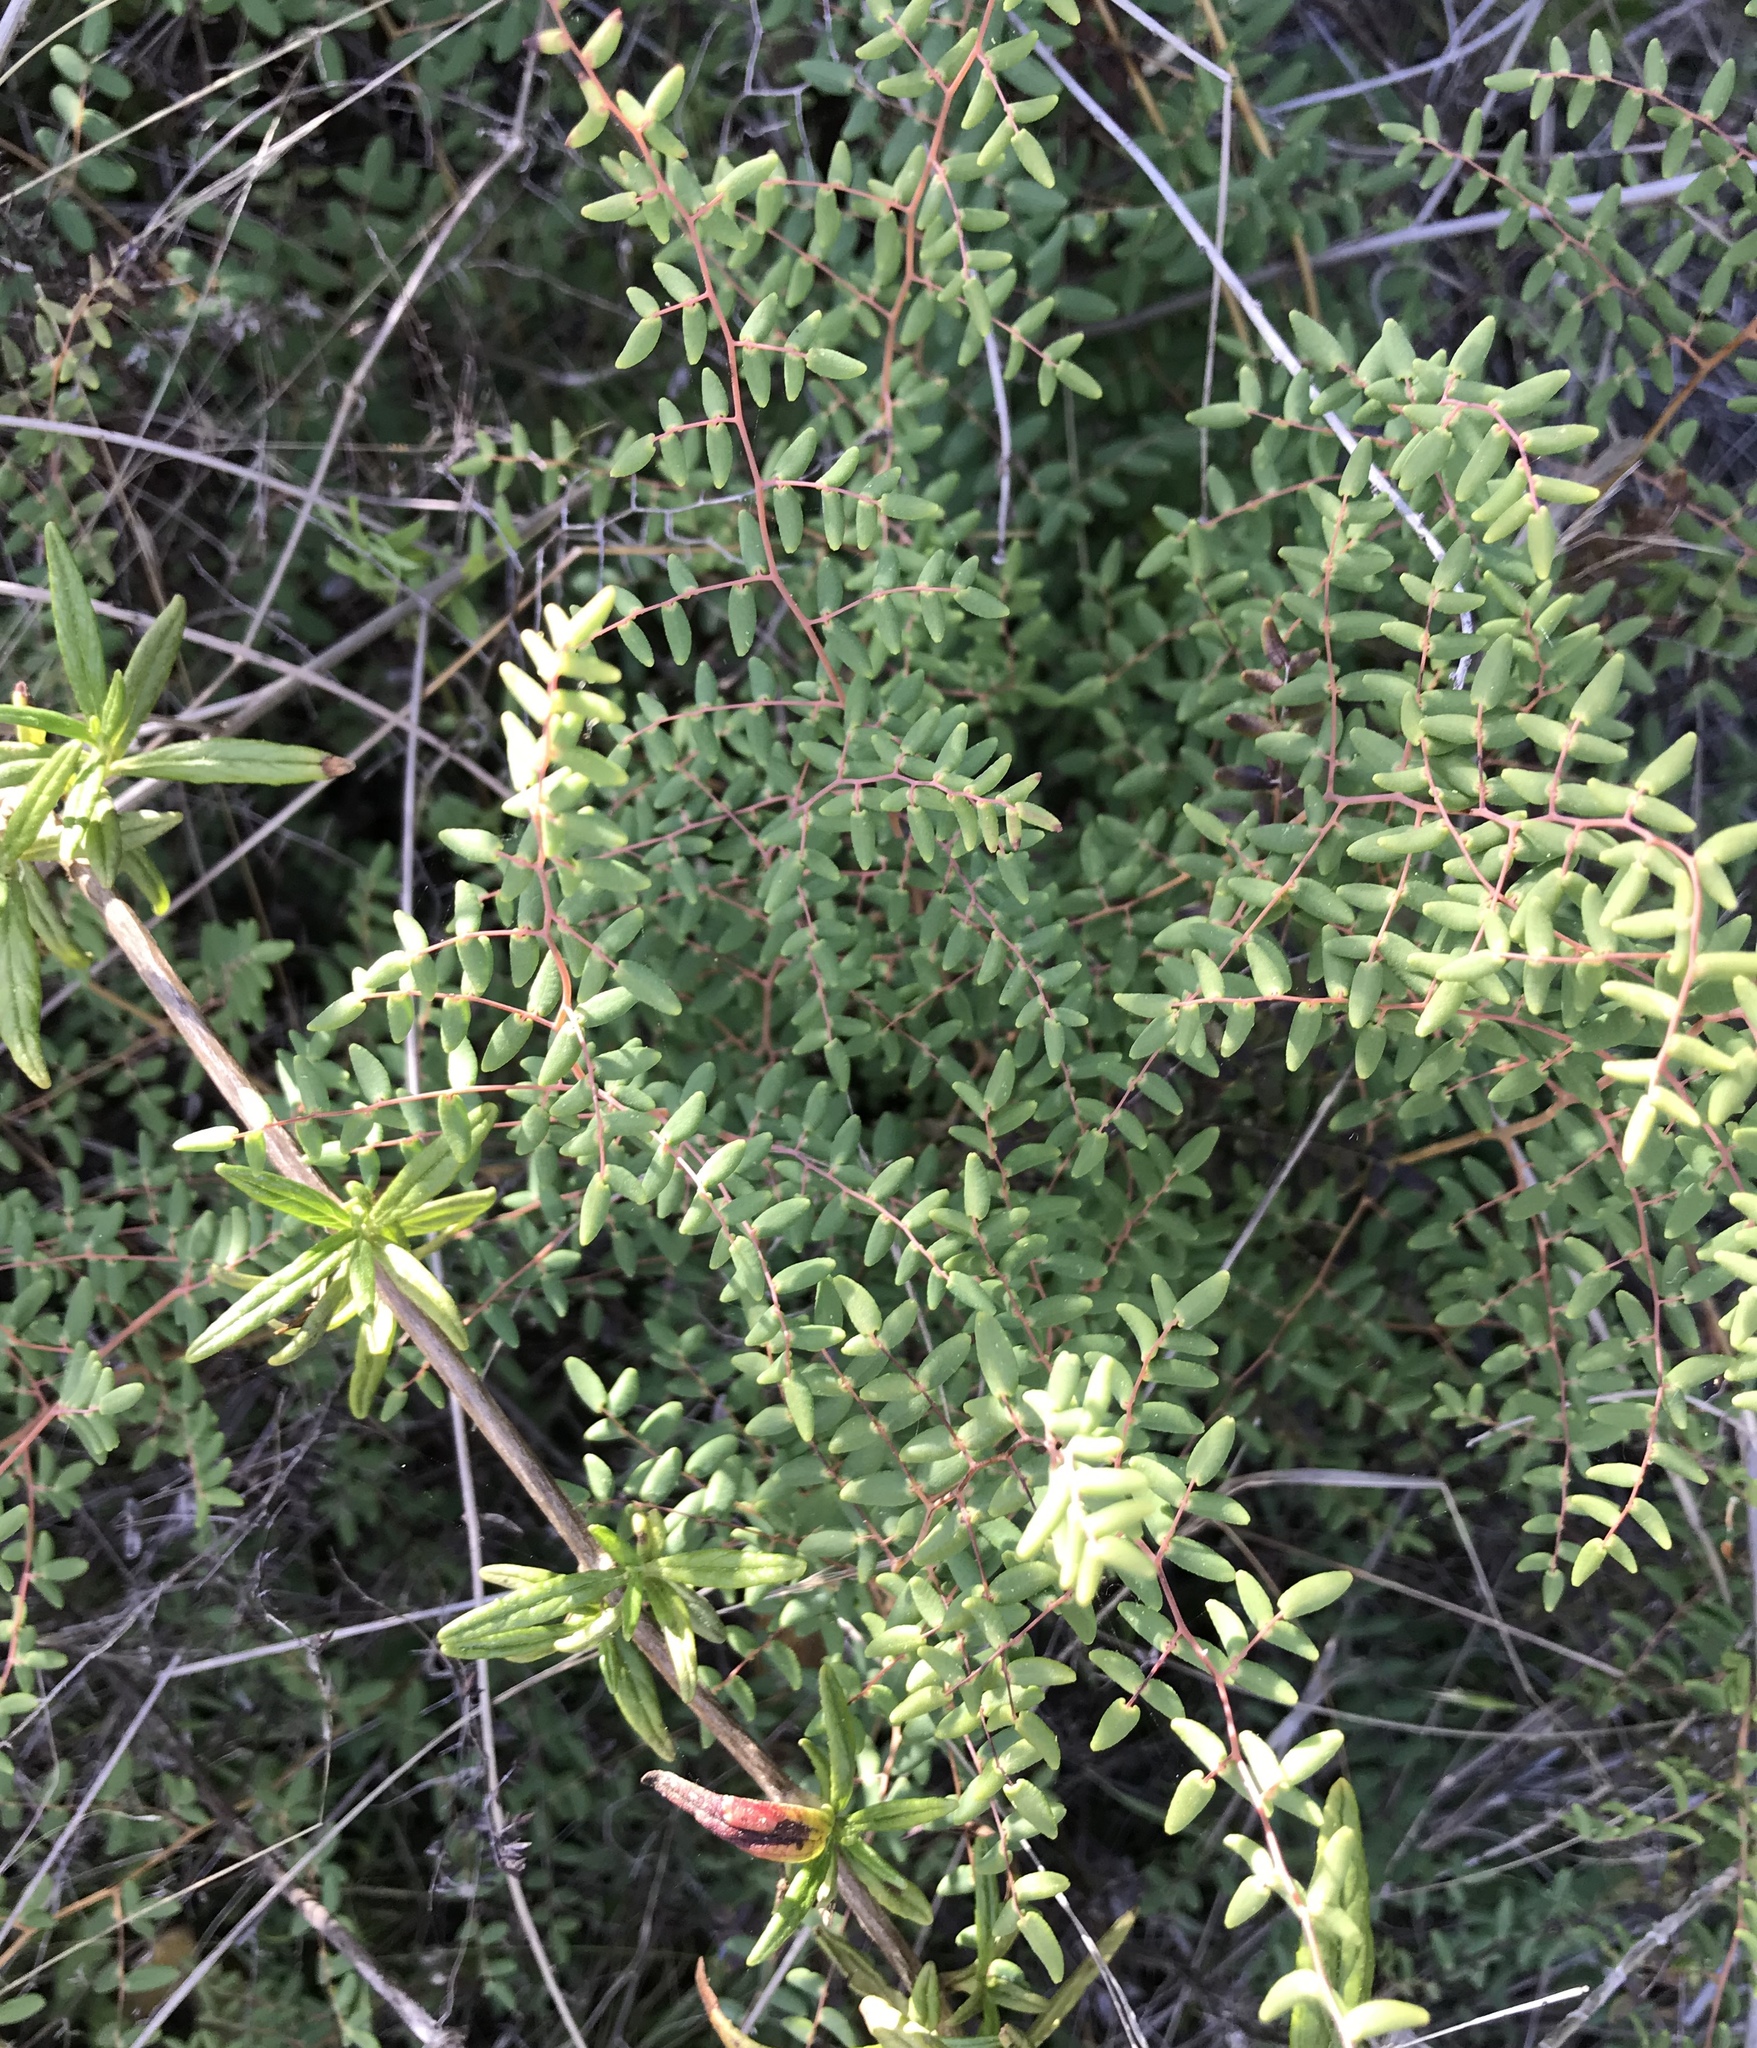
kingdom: Plantae
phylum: Tracheophyta
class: Polypodiopsida
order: Polypodiales
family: Pteridaceae
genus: Pellaea
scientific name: Pellaea andromedifolia
